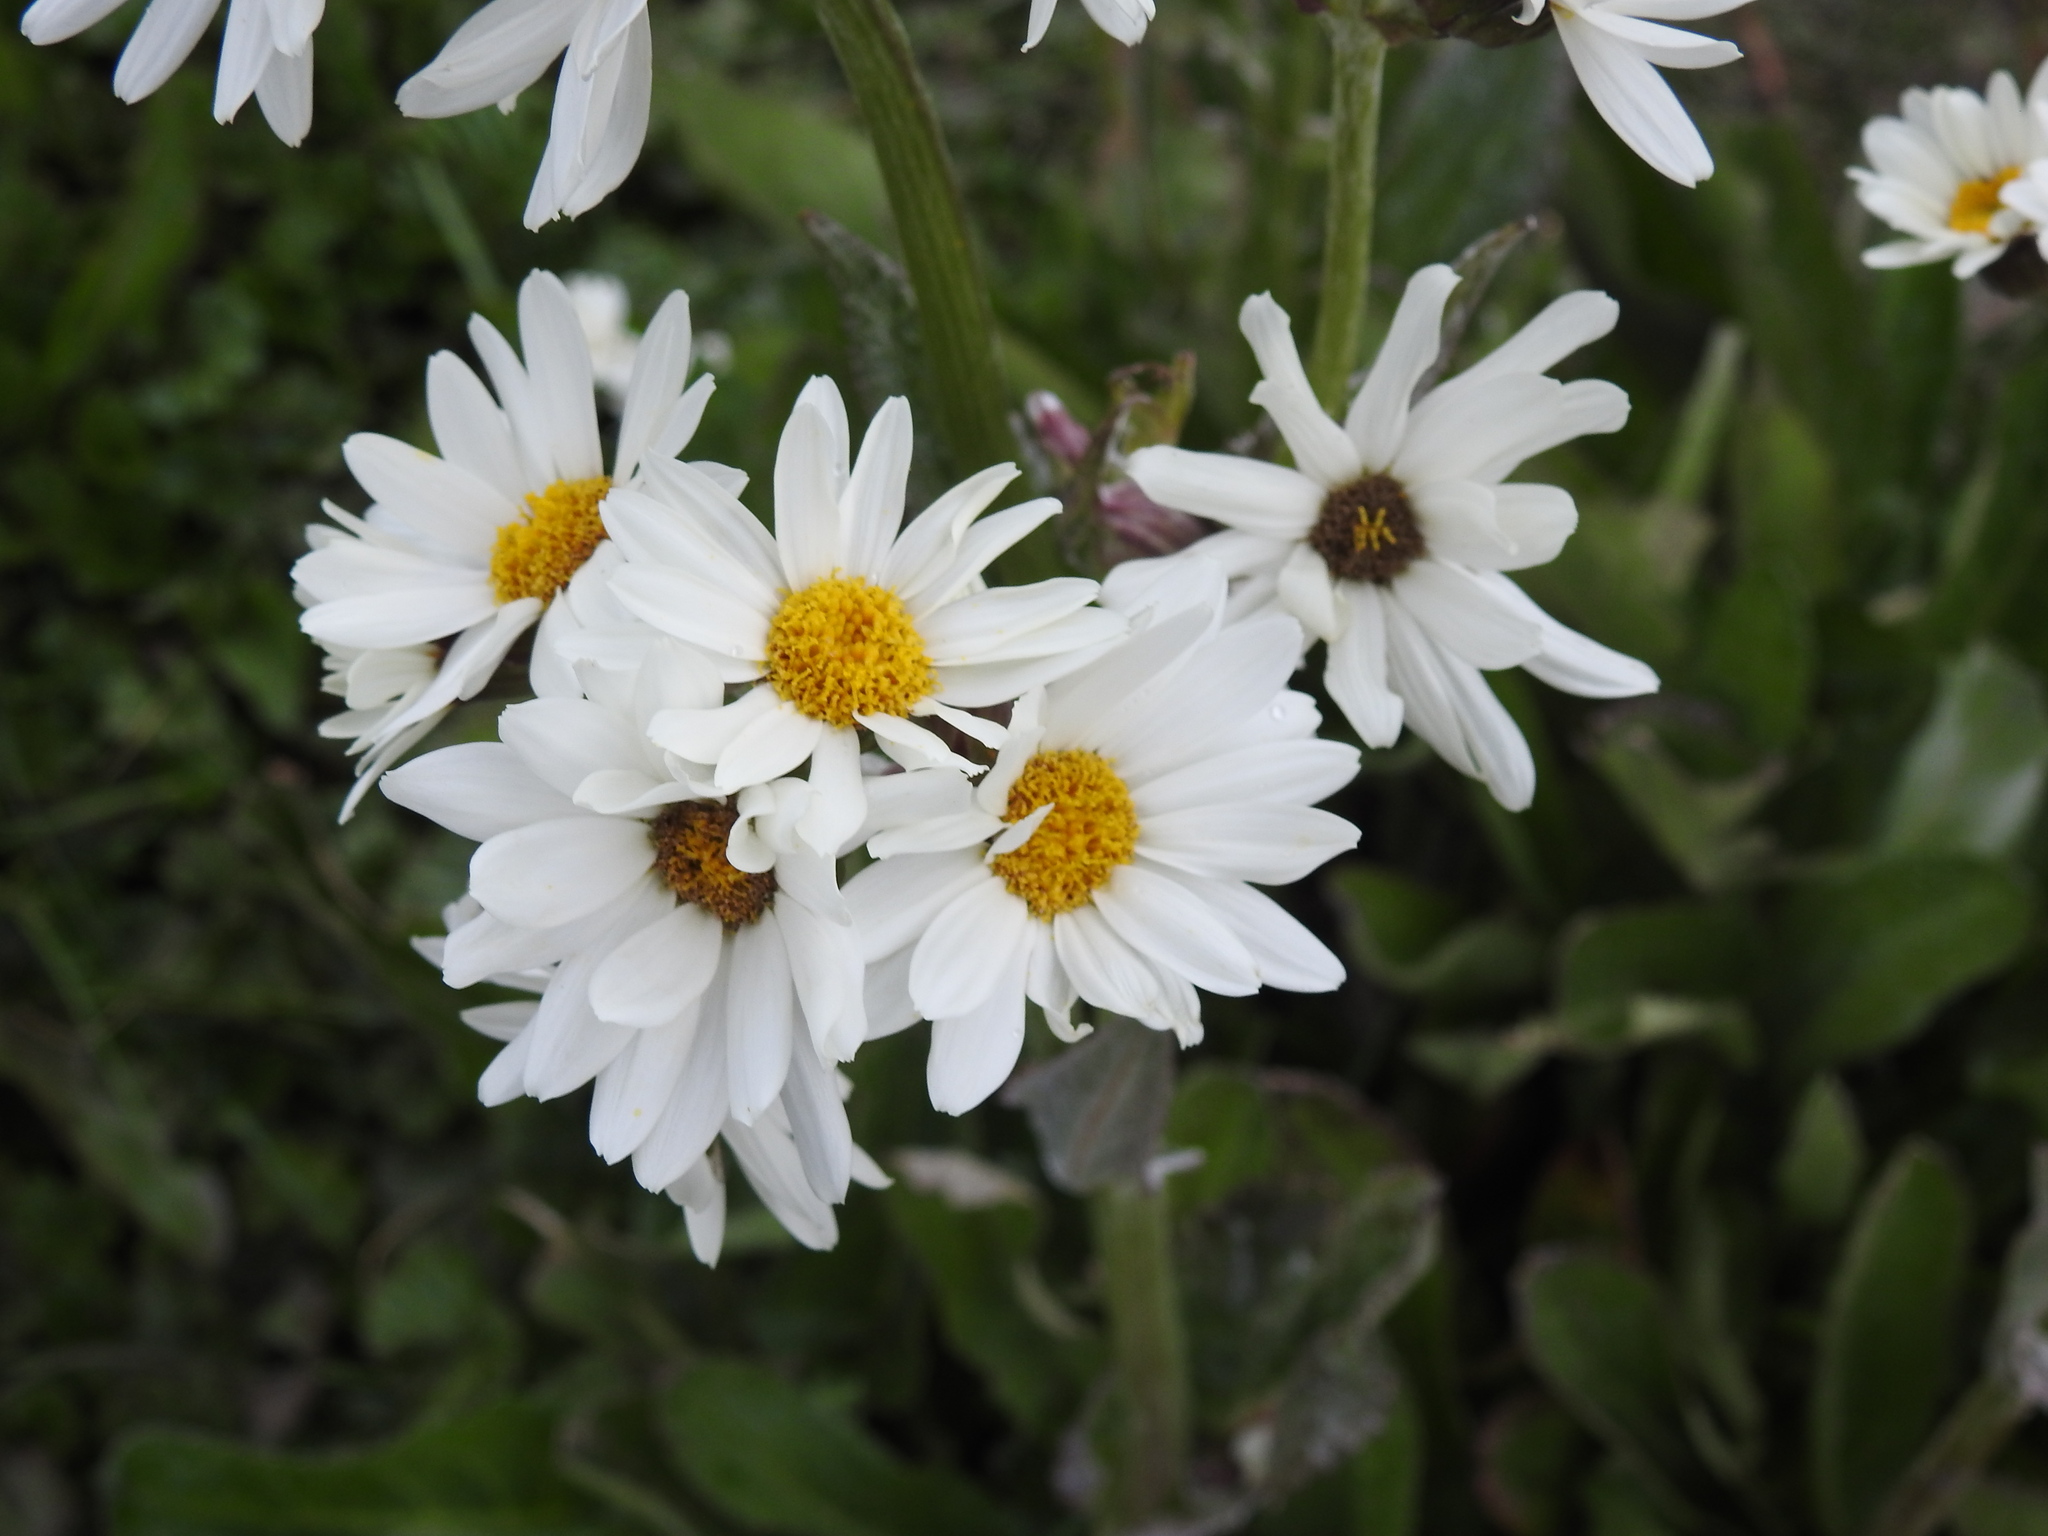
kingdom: Plantae
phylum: Tracheophyta
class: Magnoliopsida
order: Asterales
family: Asteraceae
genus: Senecio
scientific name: Senecio smithii
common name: Magellan ragwort
